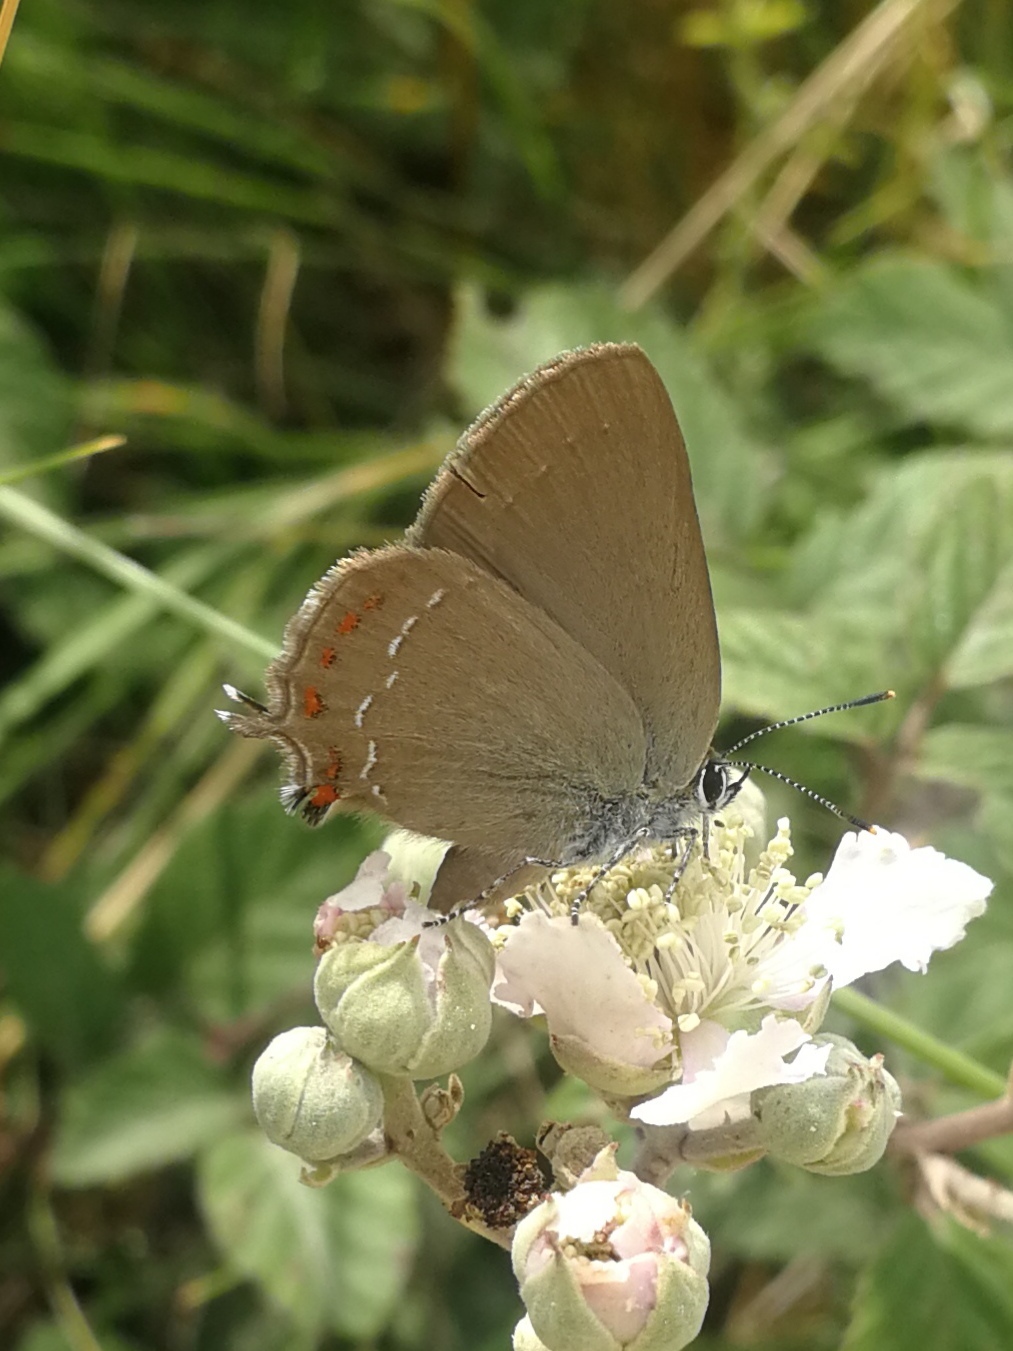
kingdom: Animalia
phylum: Arthropoda
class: Insecta
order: Lepidoptera
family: Lycaenidae
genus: Fixsenia
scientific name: Fixsenia esculi
